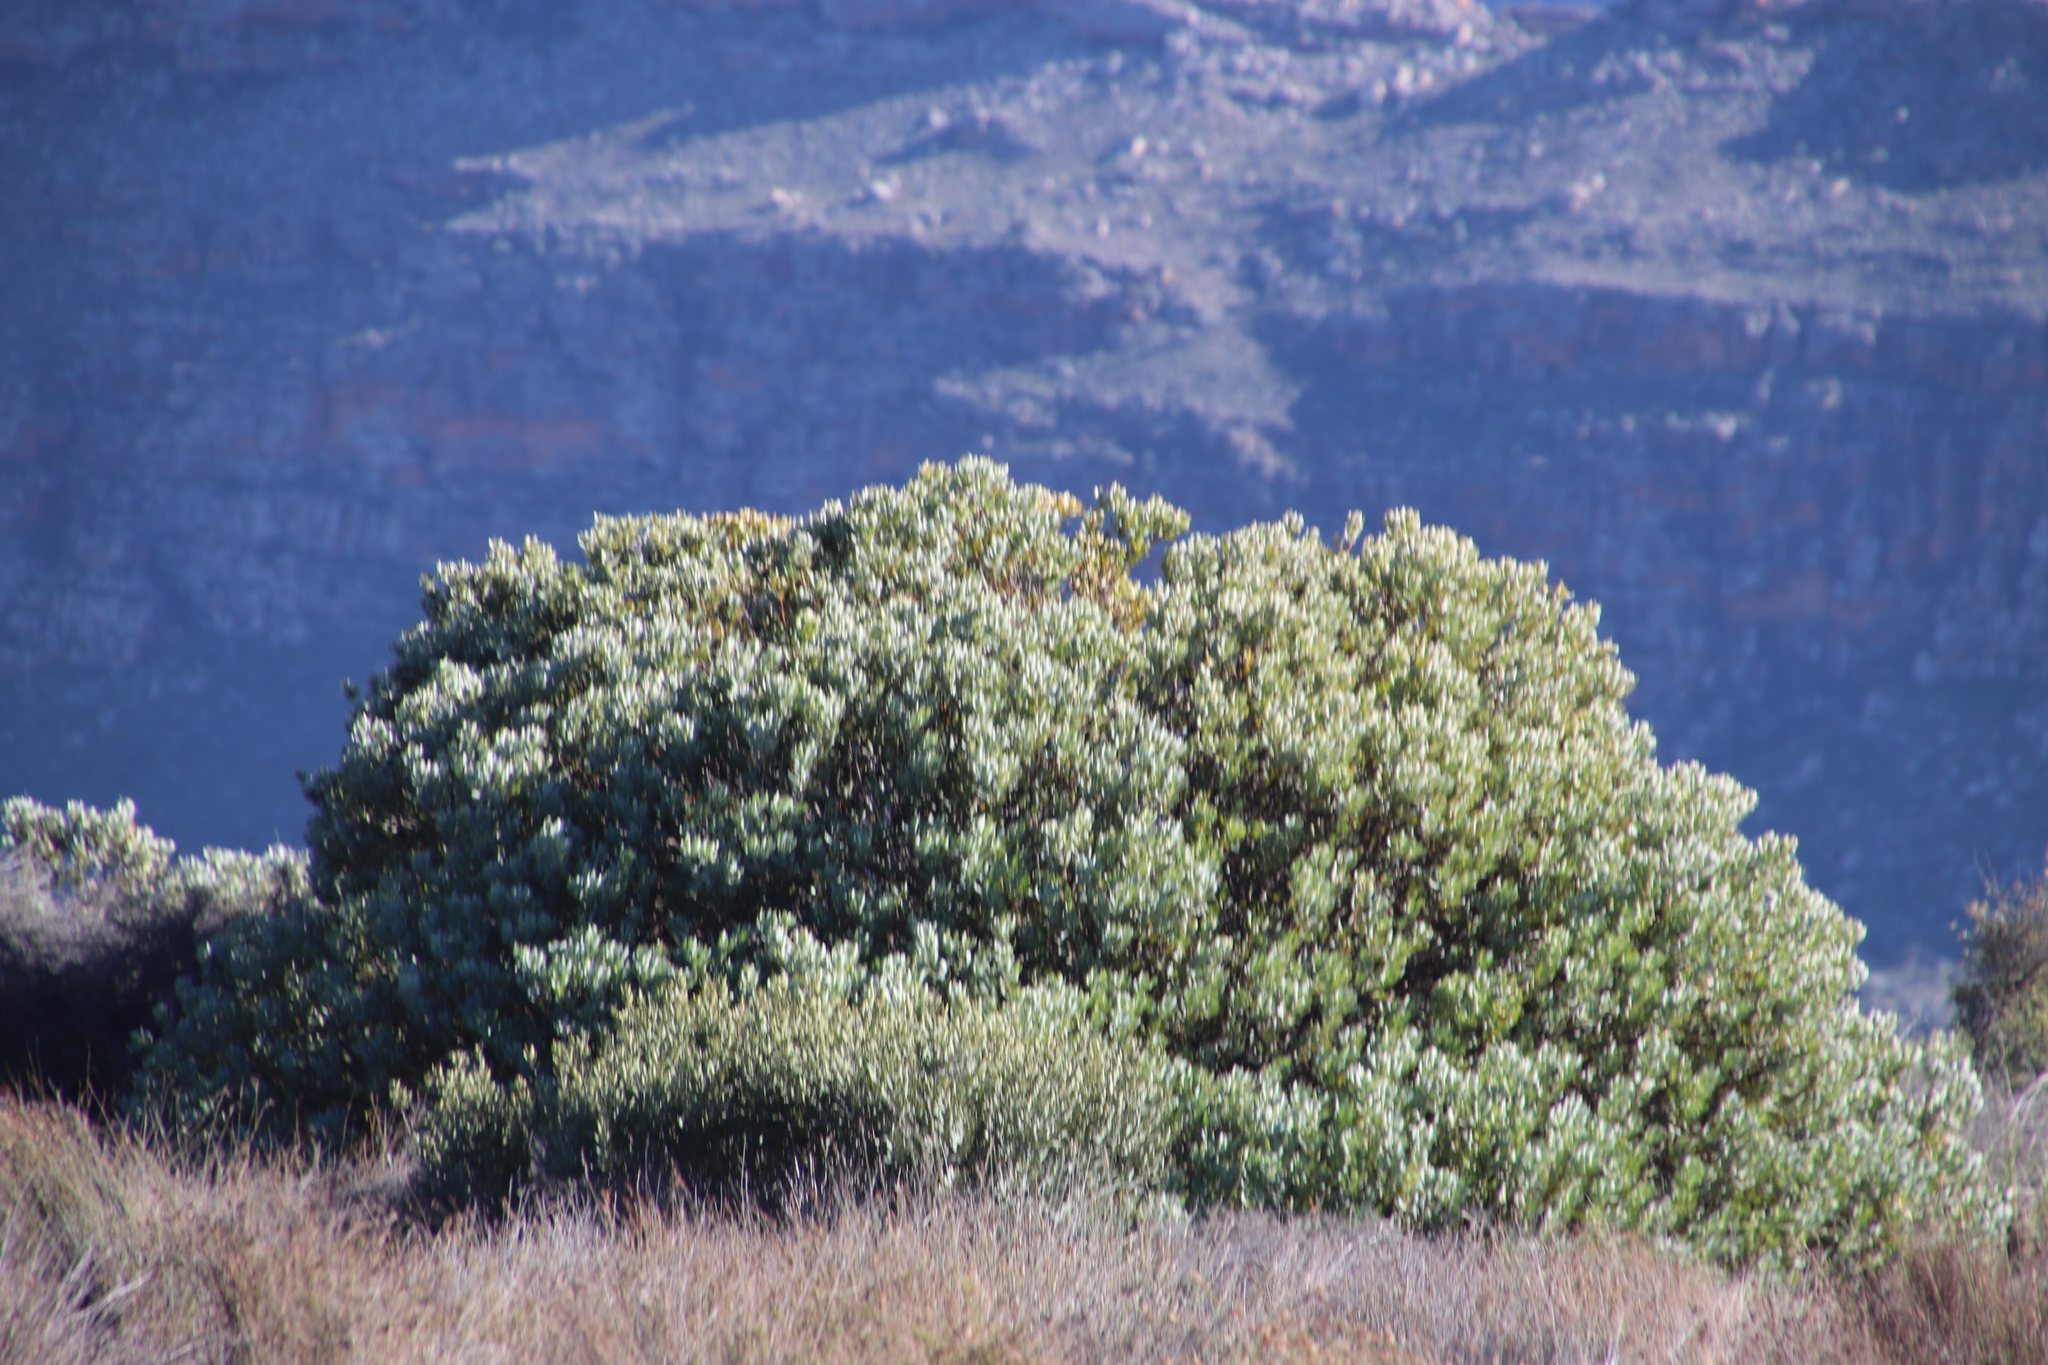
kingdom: Plantae
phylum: Tracheophyta
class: Magnoliopsida
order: Proteales
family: Proteaceae
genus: Leucadendron
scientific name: Leucadendron pubescens
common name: Grey conebush
